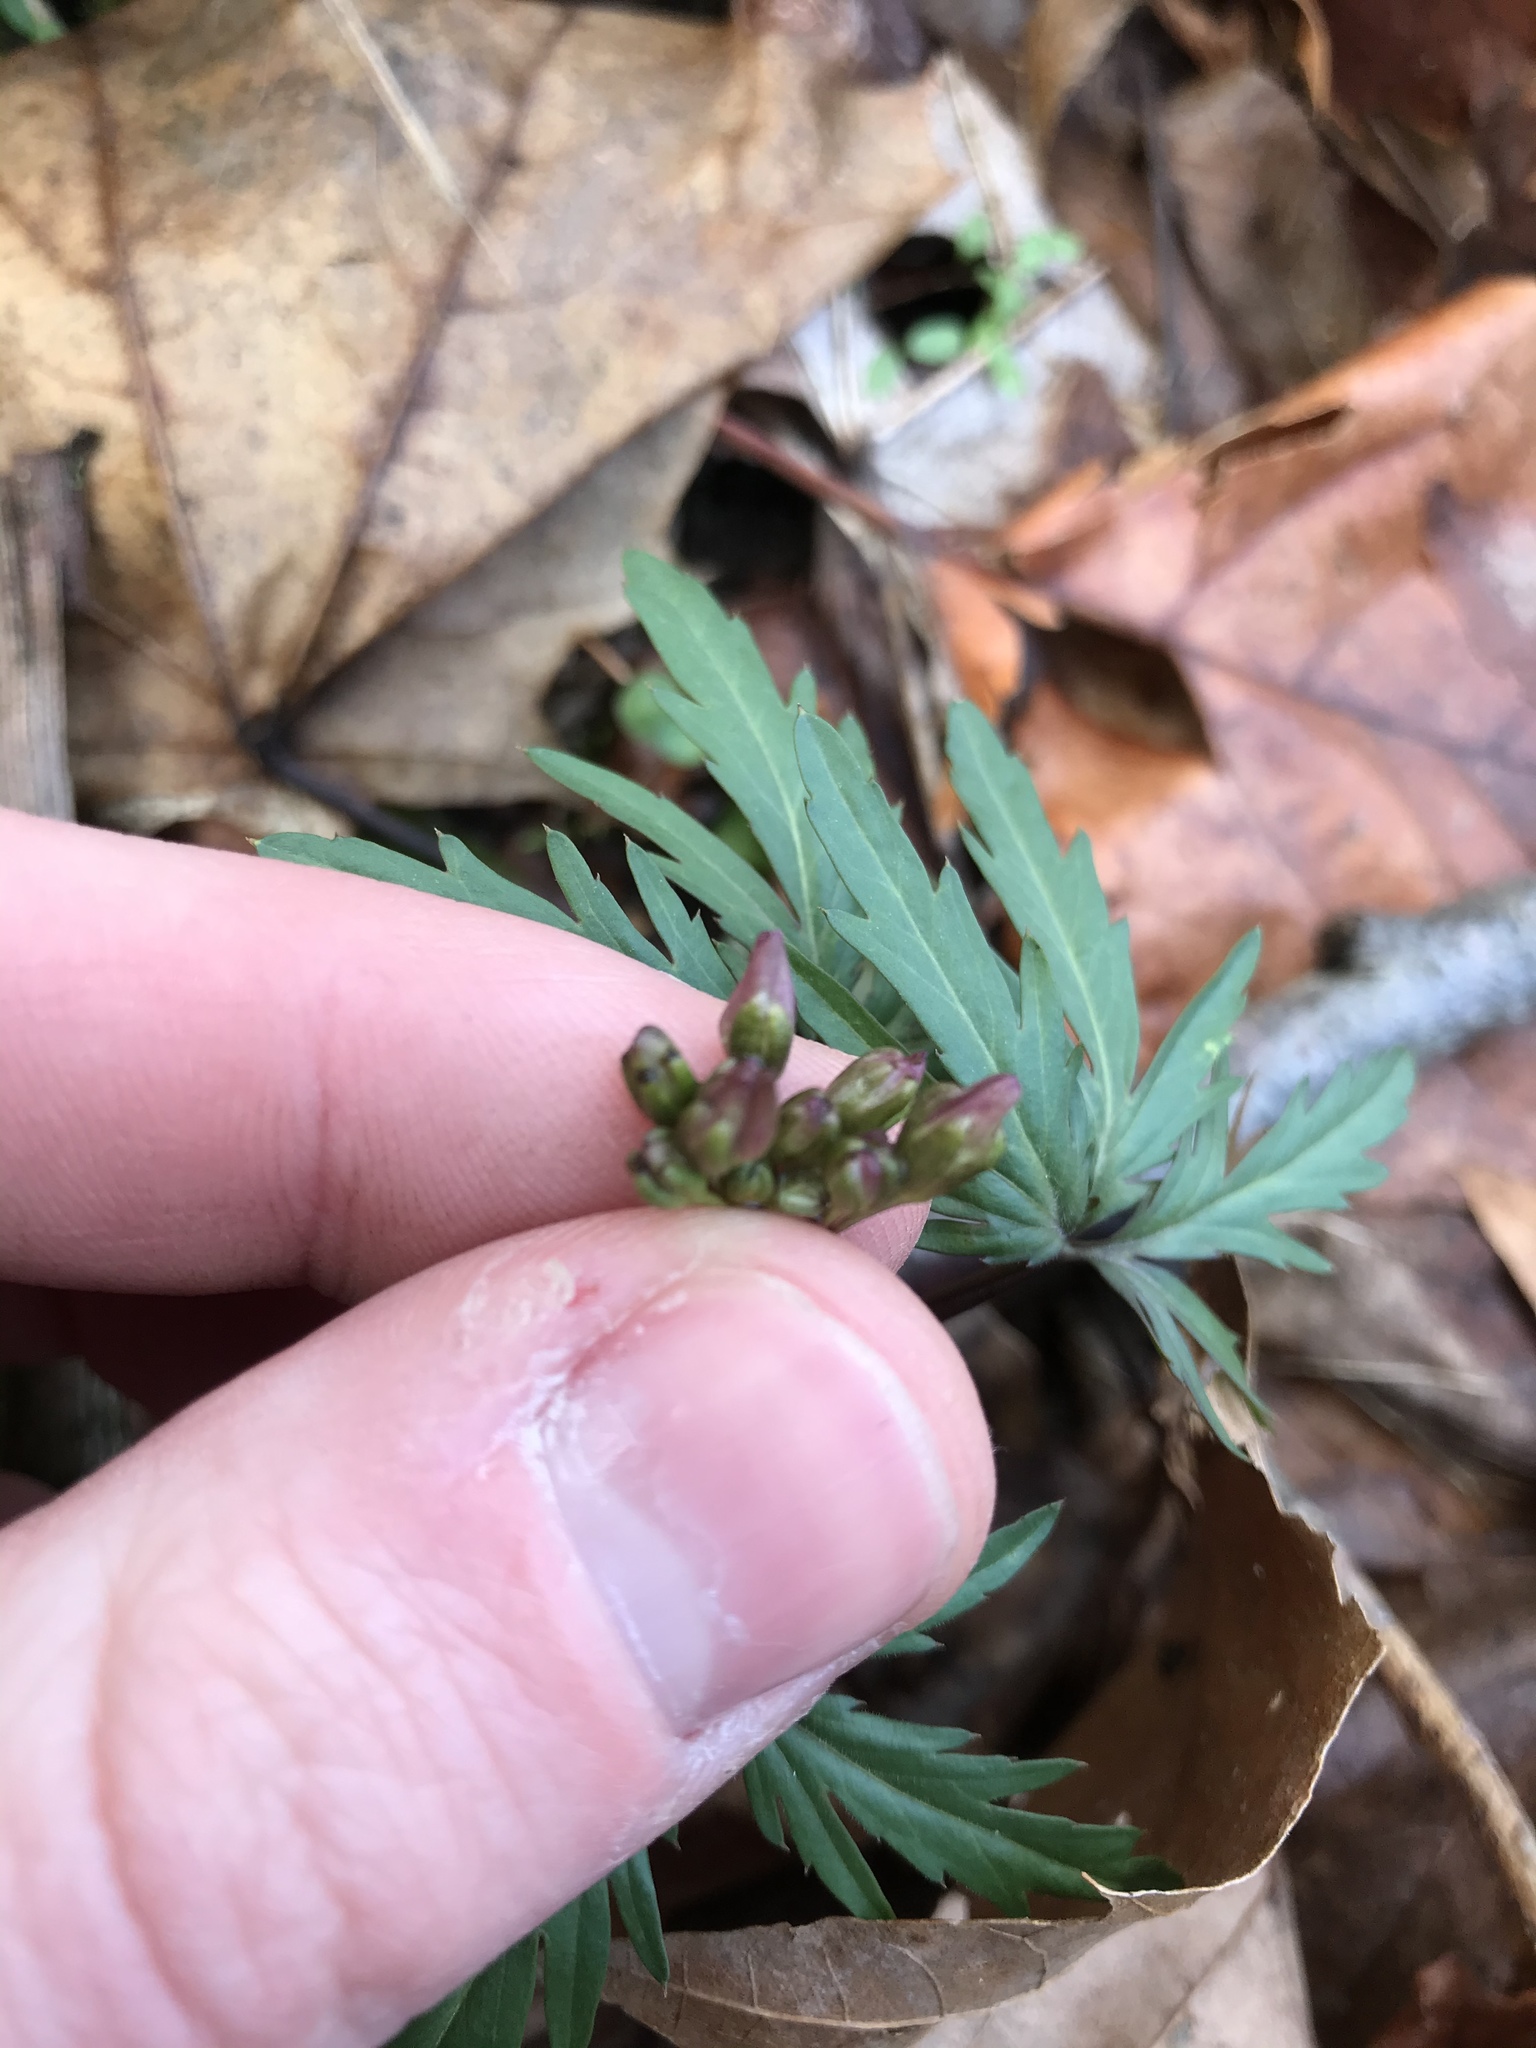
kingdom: Plantae
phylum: Tracheophyta
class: Magnoliopsida
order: Brassicales
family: Brassicaceae
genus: Cardamine
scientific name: Cardamine concatenata
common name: Cut-leaf toothcup
